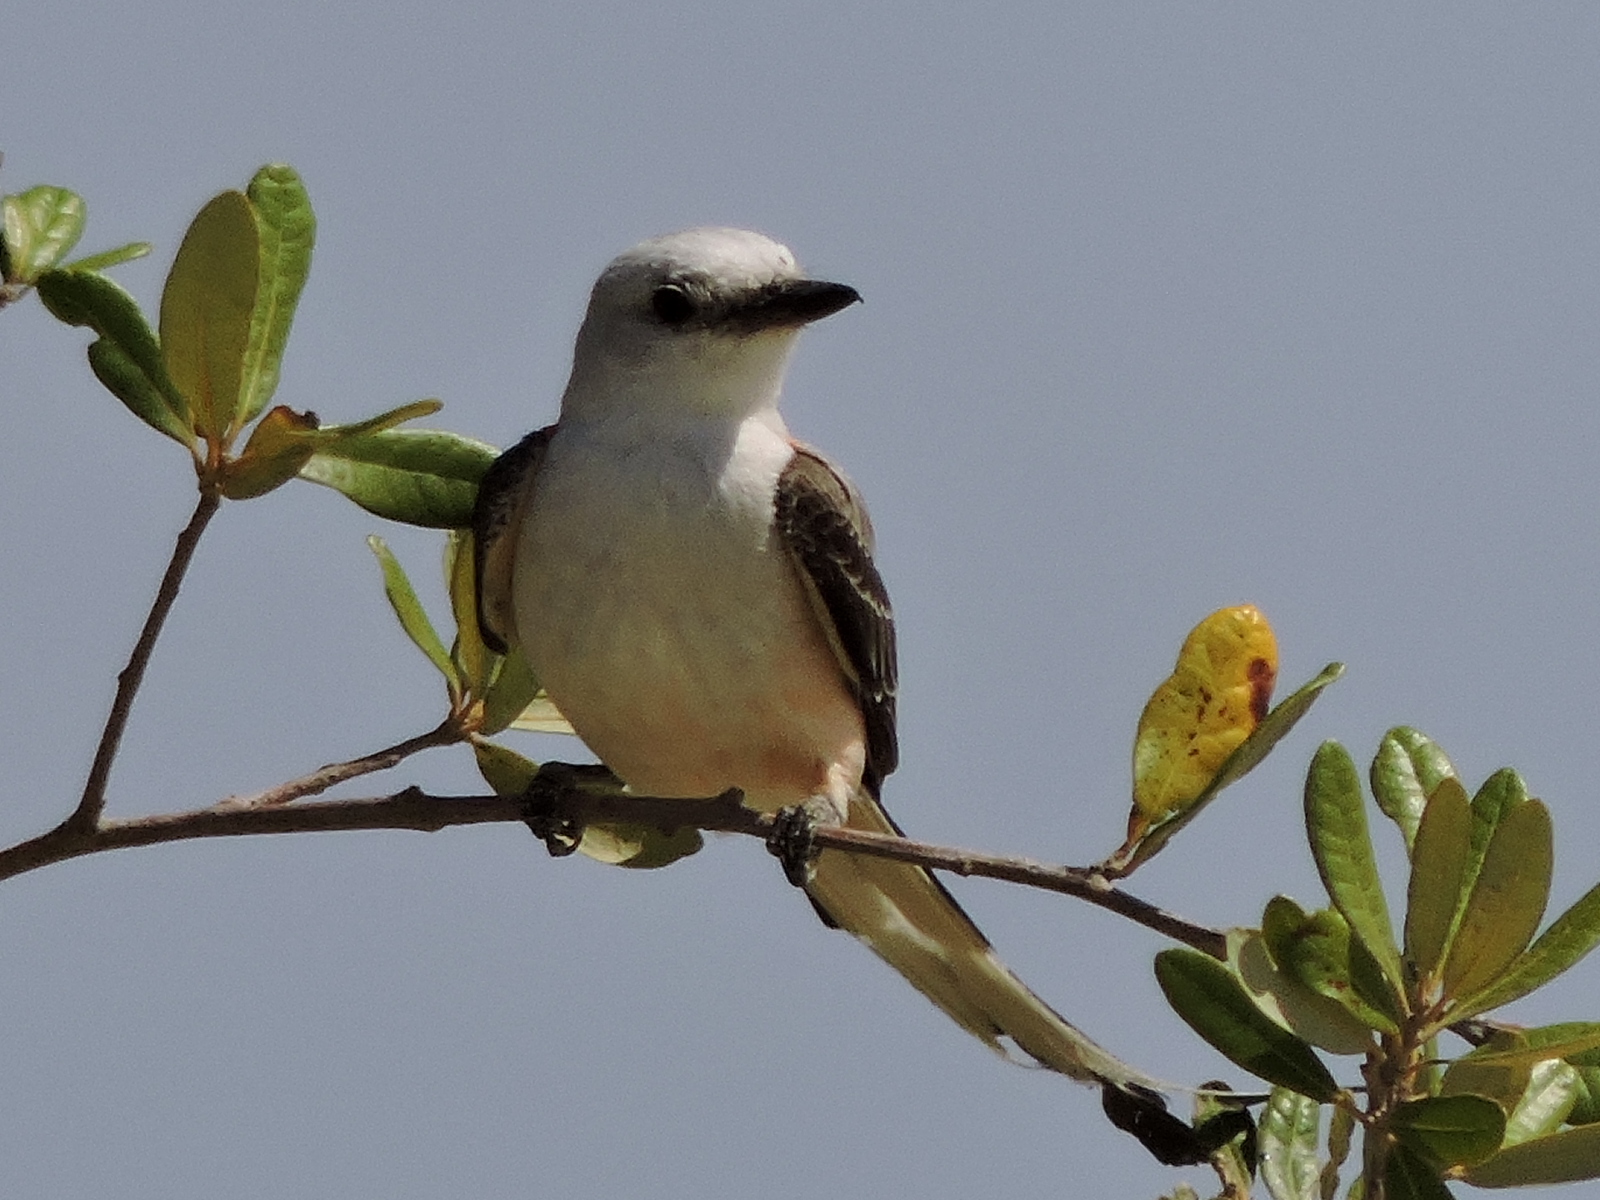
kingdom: Animalia
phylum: Chordata
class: Aves
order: Passeriformes
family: Tyrannidae
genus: Tyrannus
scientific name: Tyrannus forficatus
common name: Scissor-tailed flycatcher
